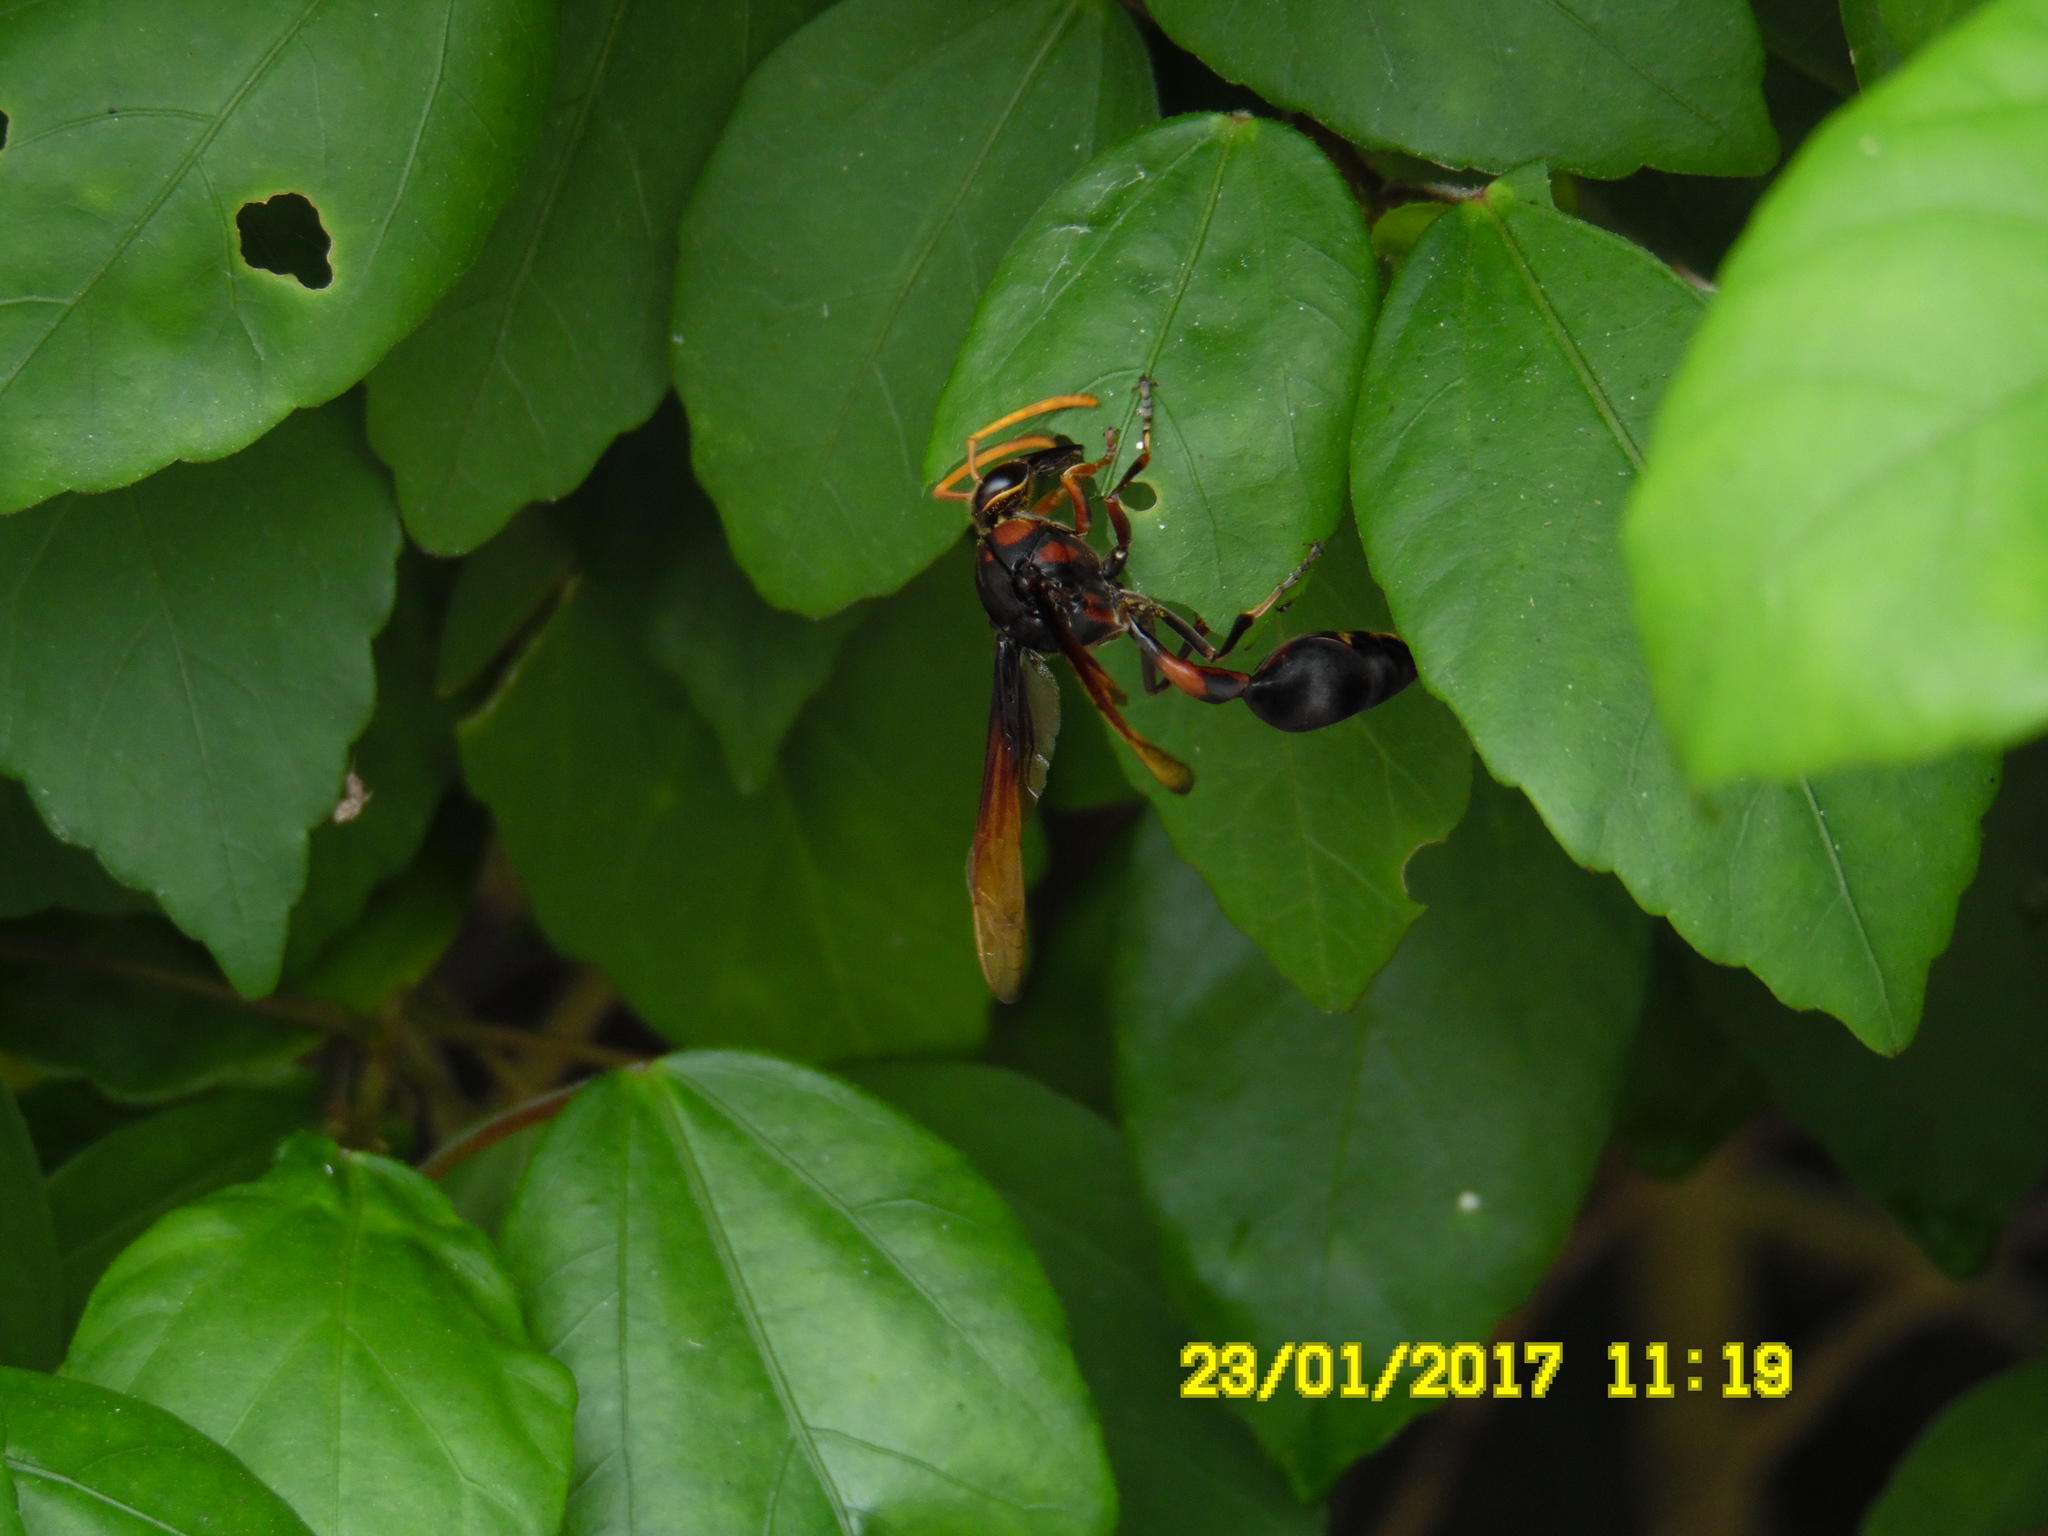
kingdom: Animalia
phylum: Arthropoda
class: Insecta
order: Hymenoptera
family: Eumenidae
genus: Delta
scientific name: Delta pyriforme
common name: Wasp
